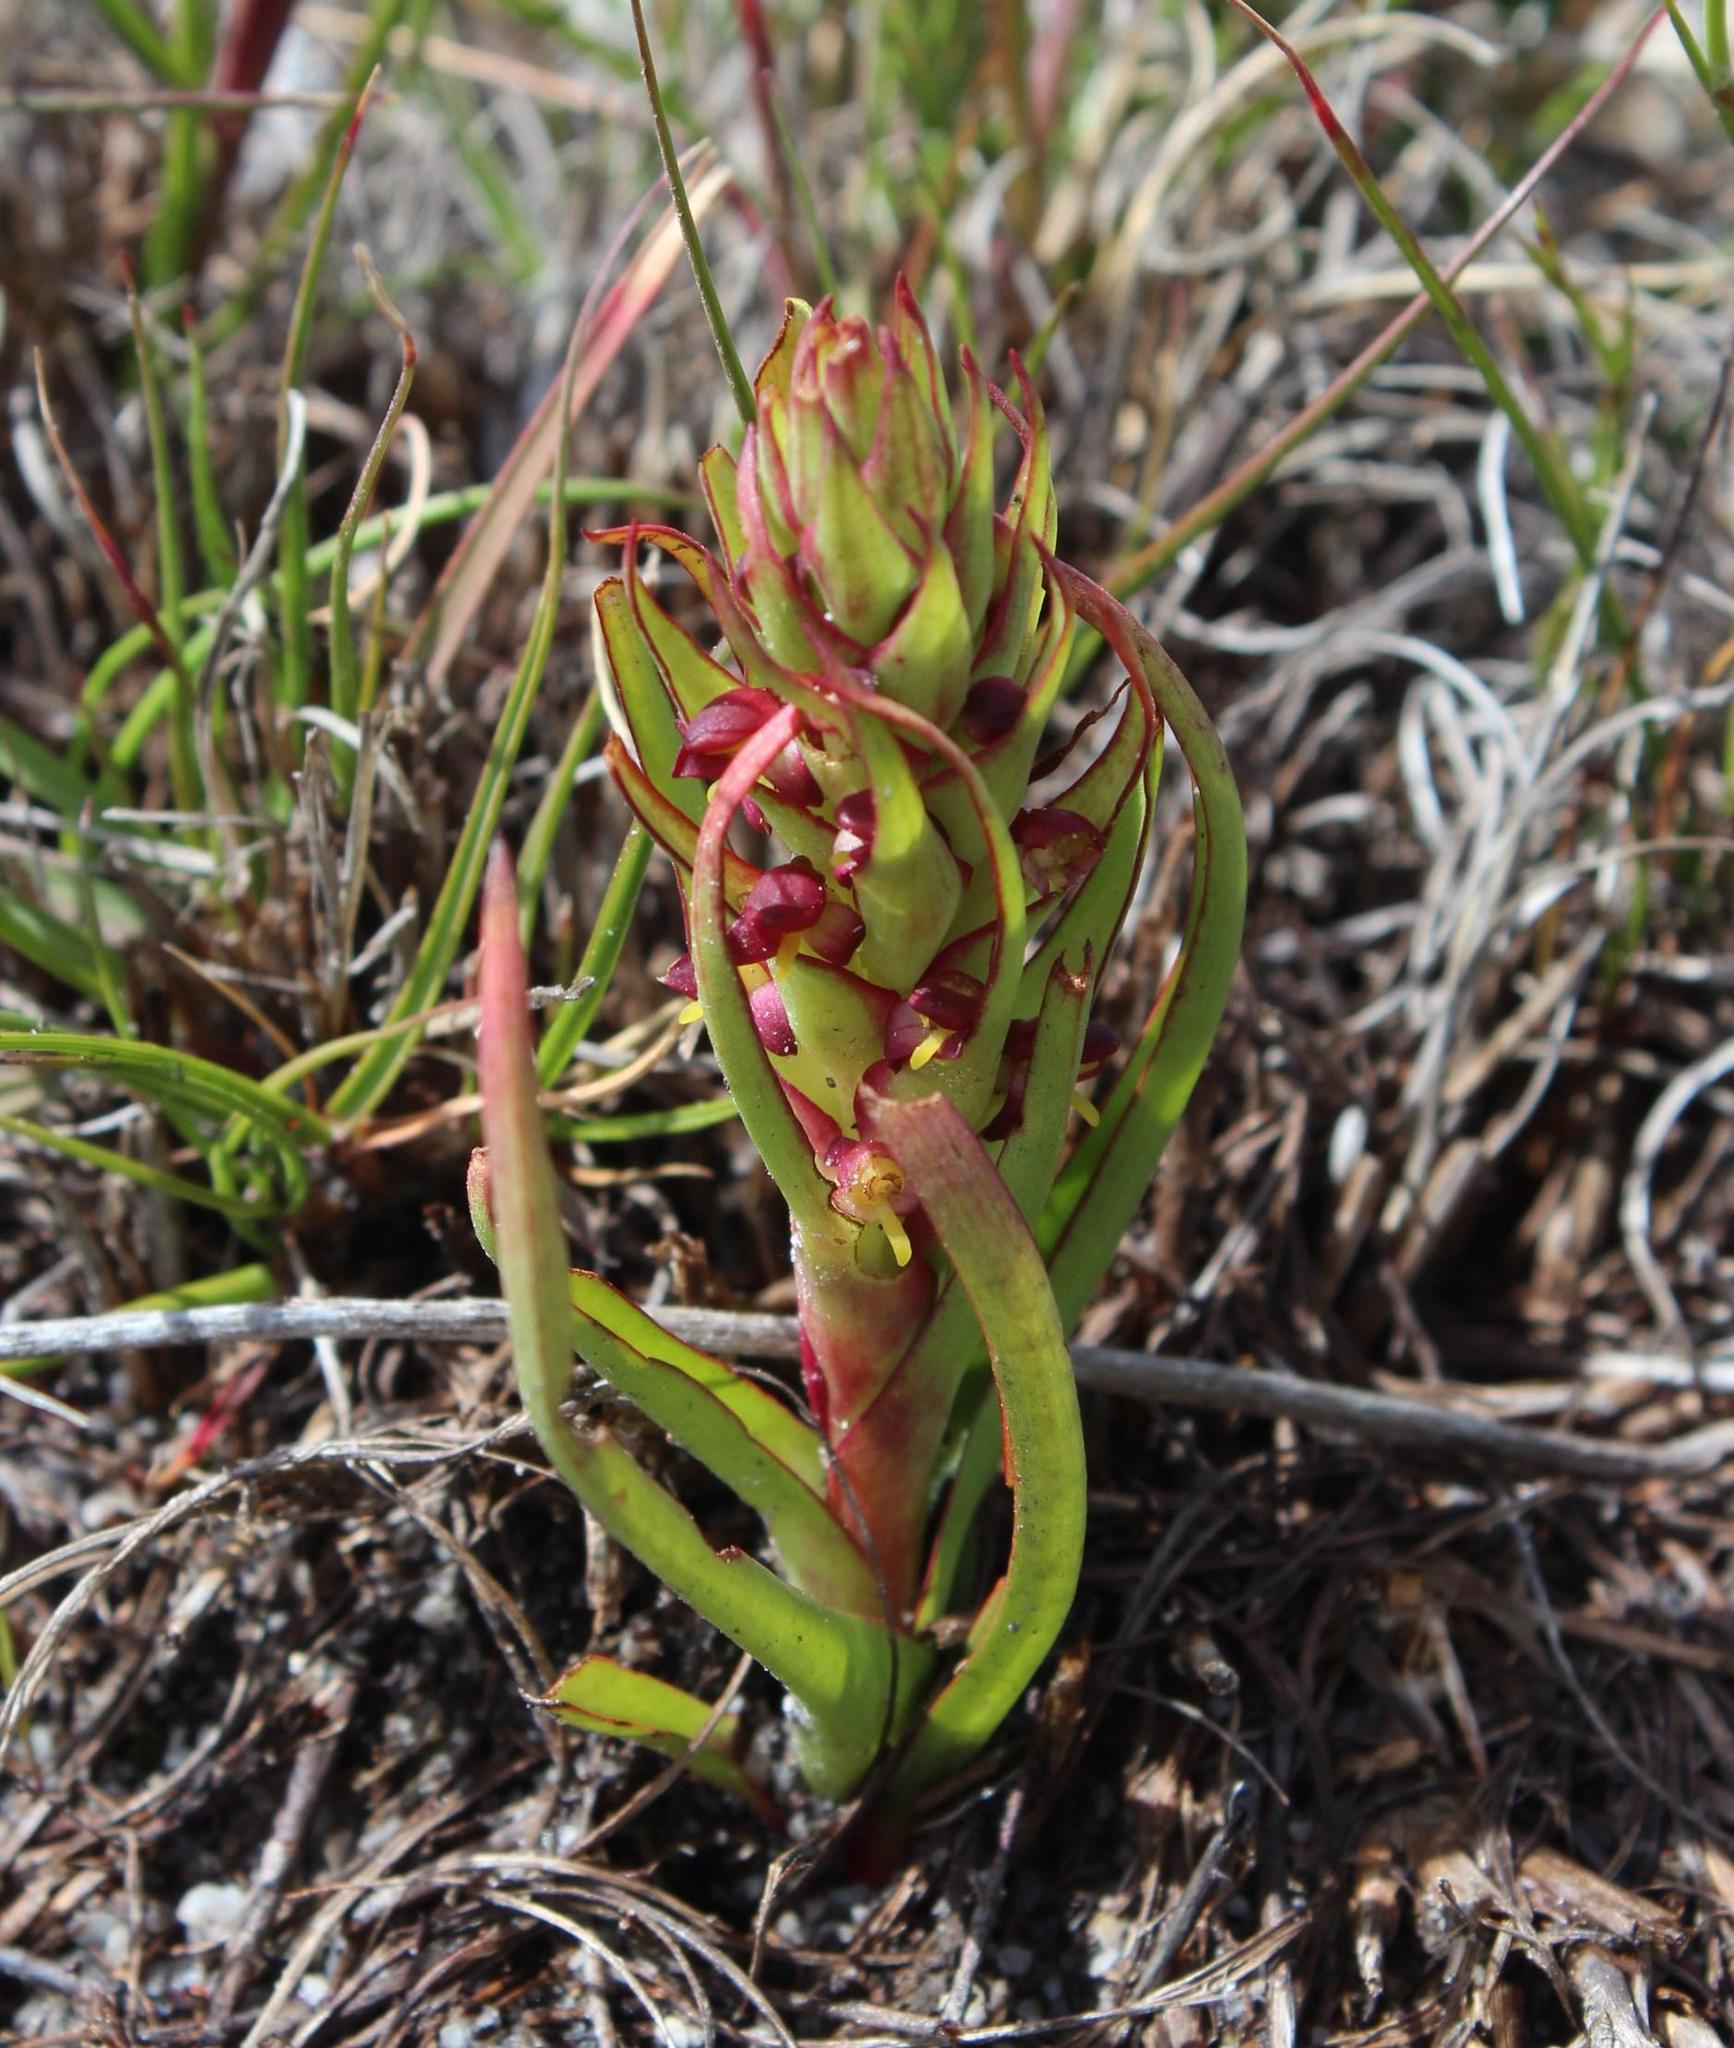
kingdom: Plantae
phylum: Tracheophyta
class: Liliopsida
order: Asparagales
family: Orchidaceae
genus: Disa
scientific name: Disa bracteata
